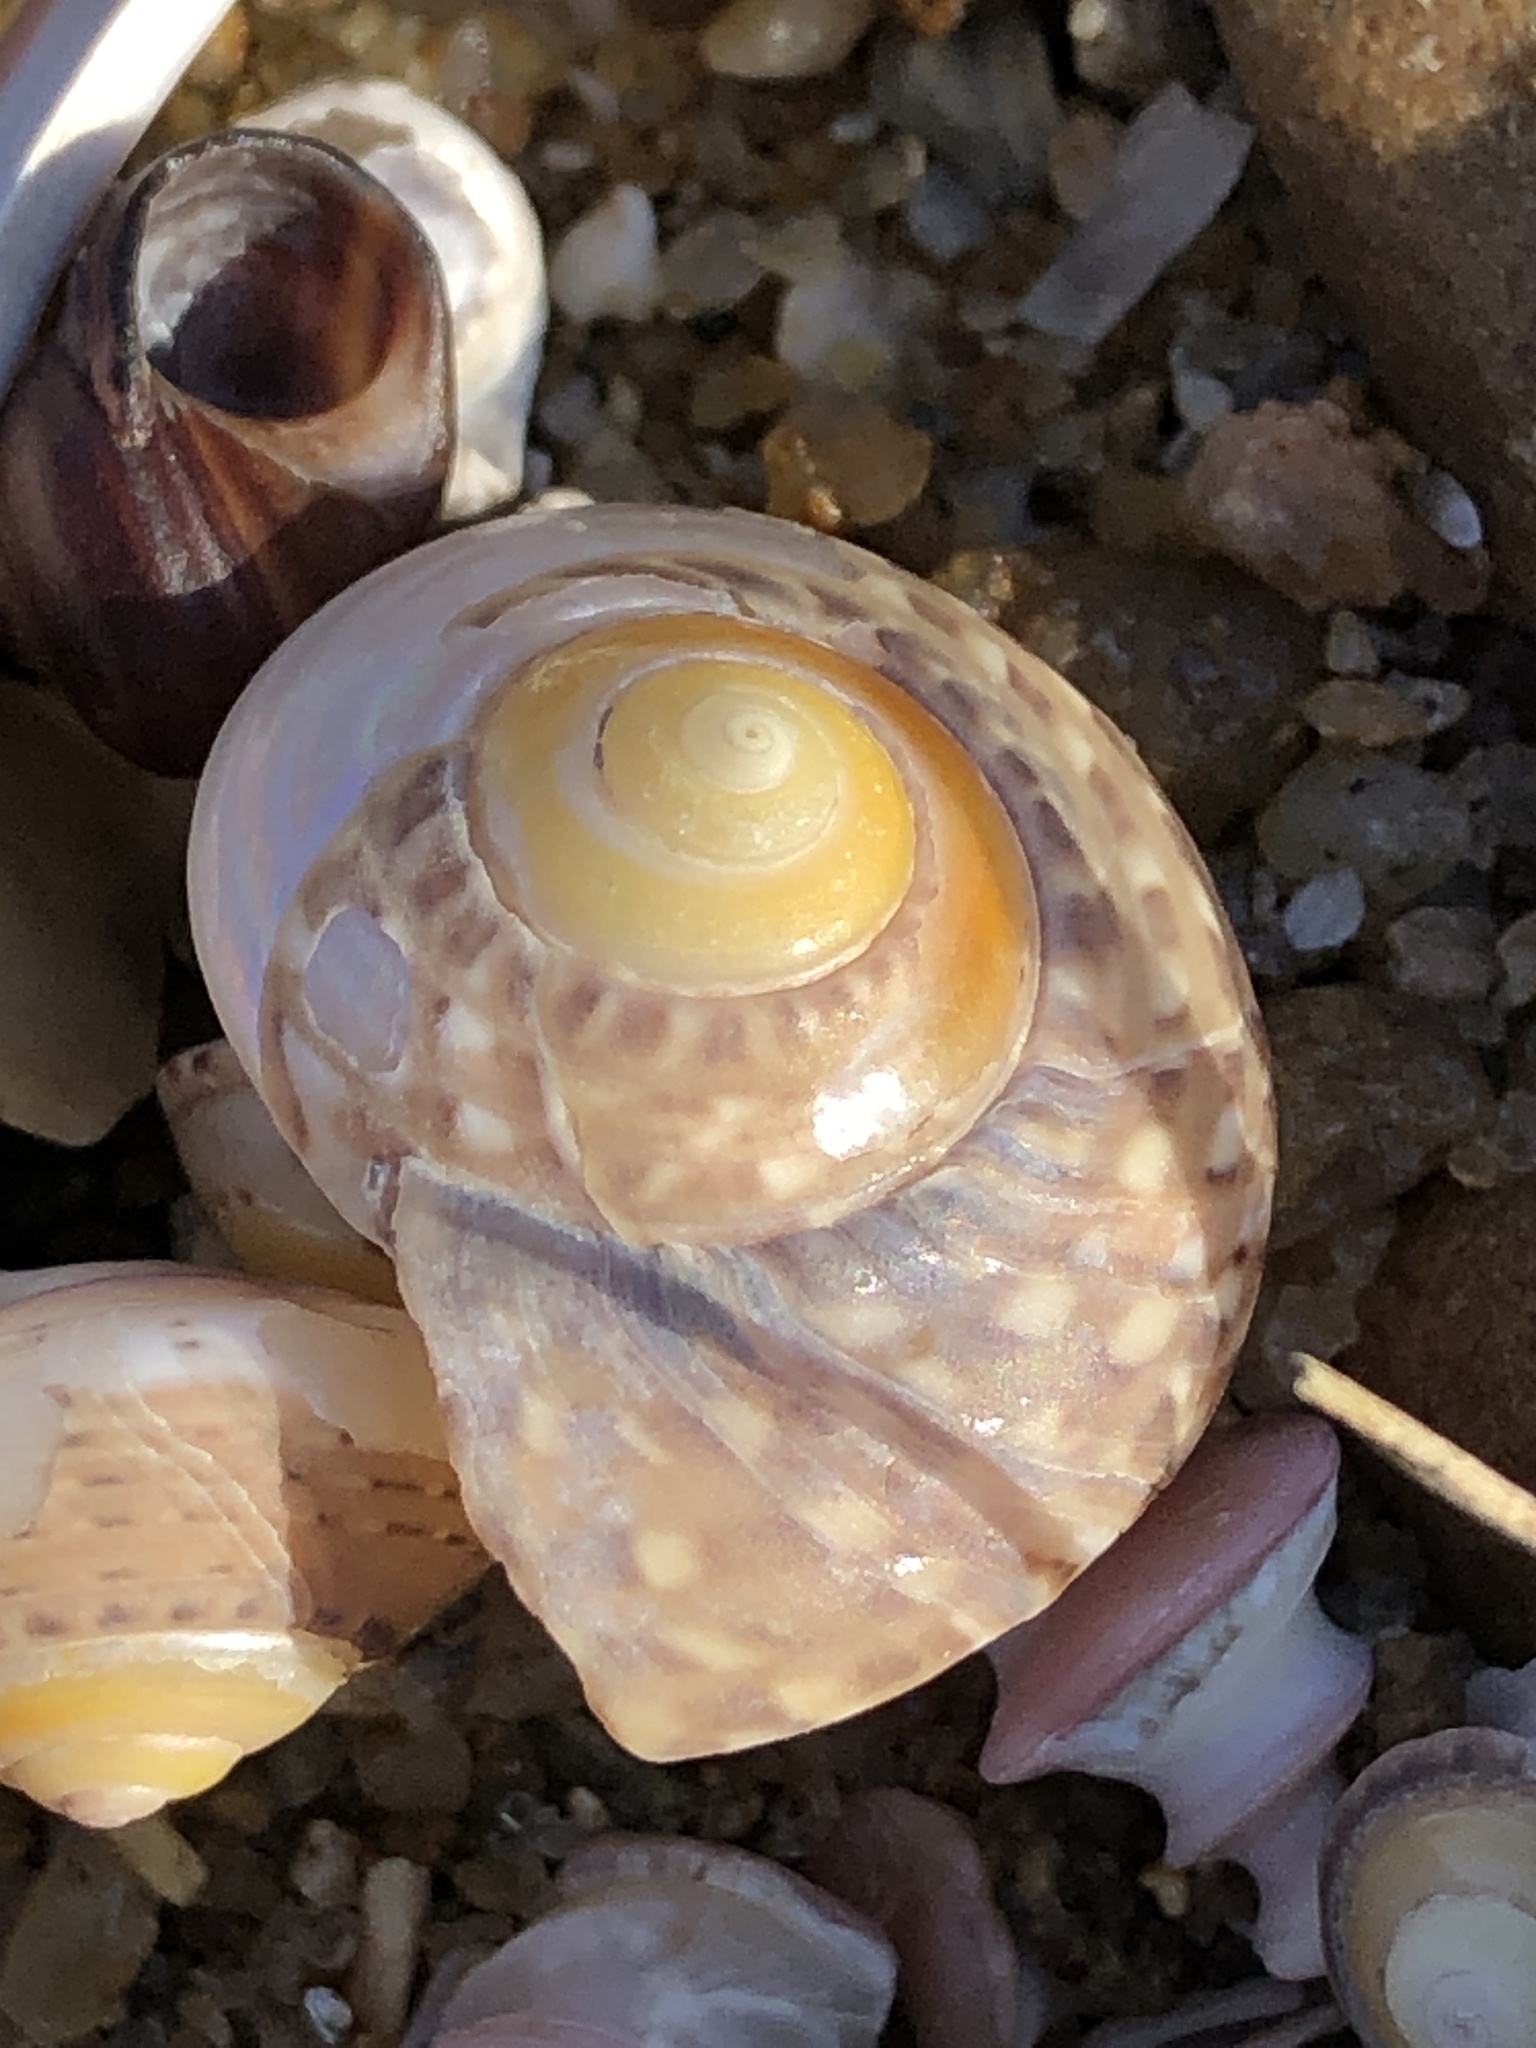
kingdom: Animalia
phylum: Mollusca
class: Gastropoda
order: Trochida
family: Trochidae
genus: Umbonium
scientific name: Umbonium costatum
